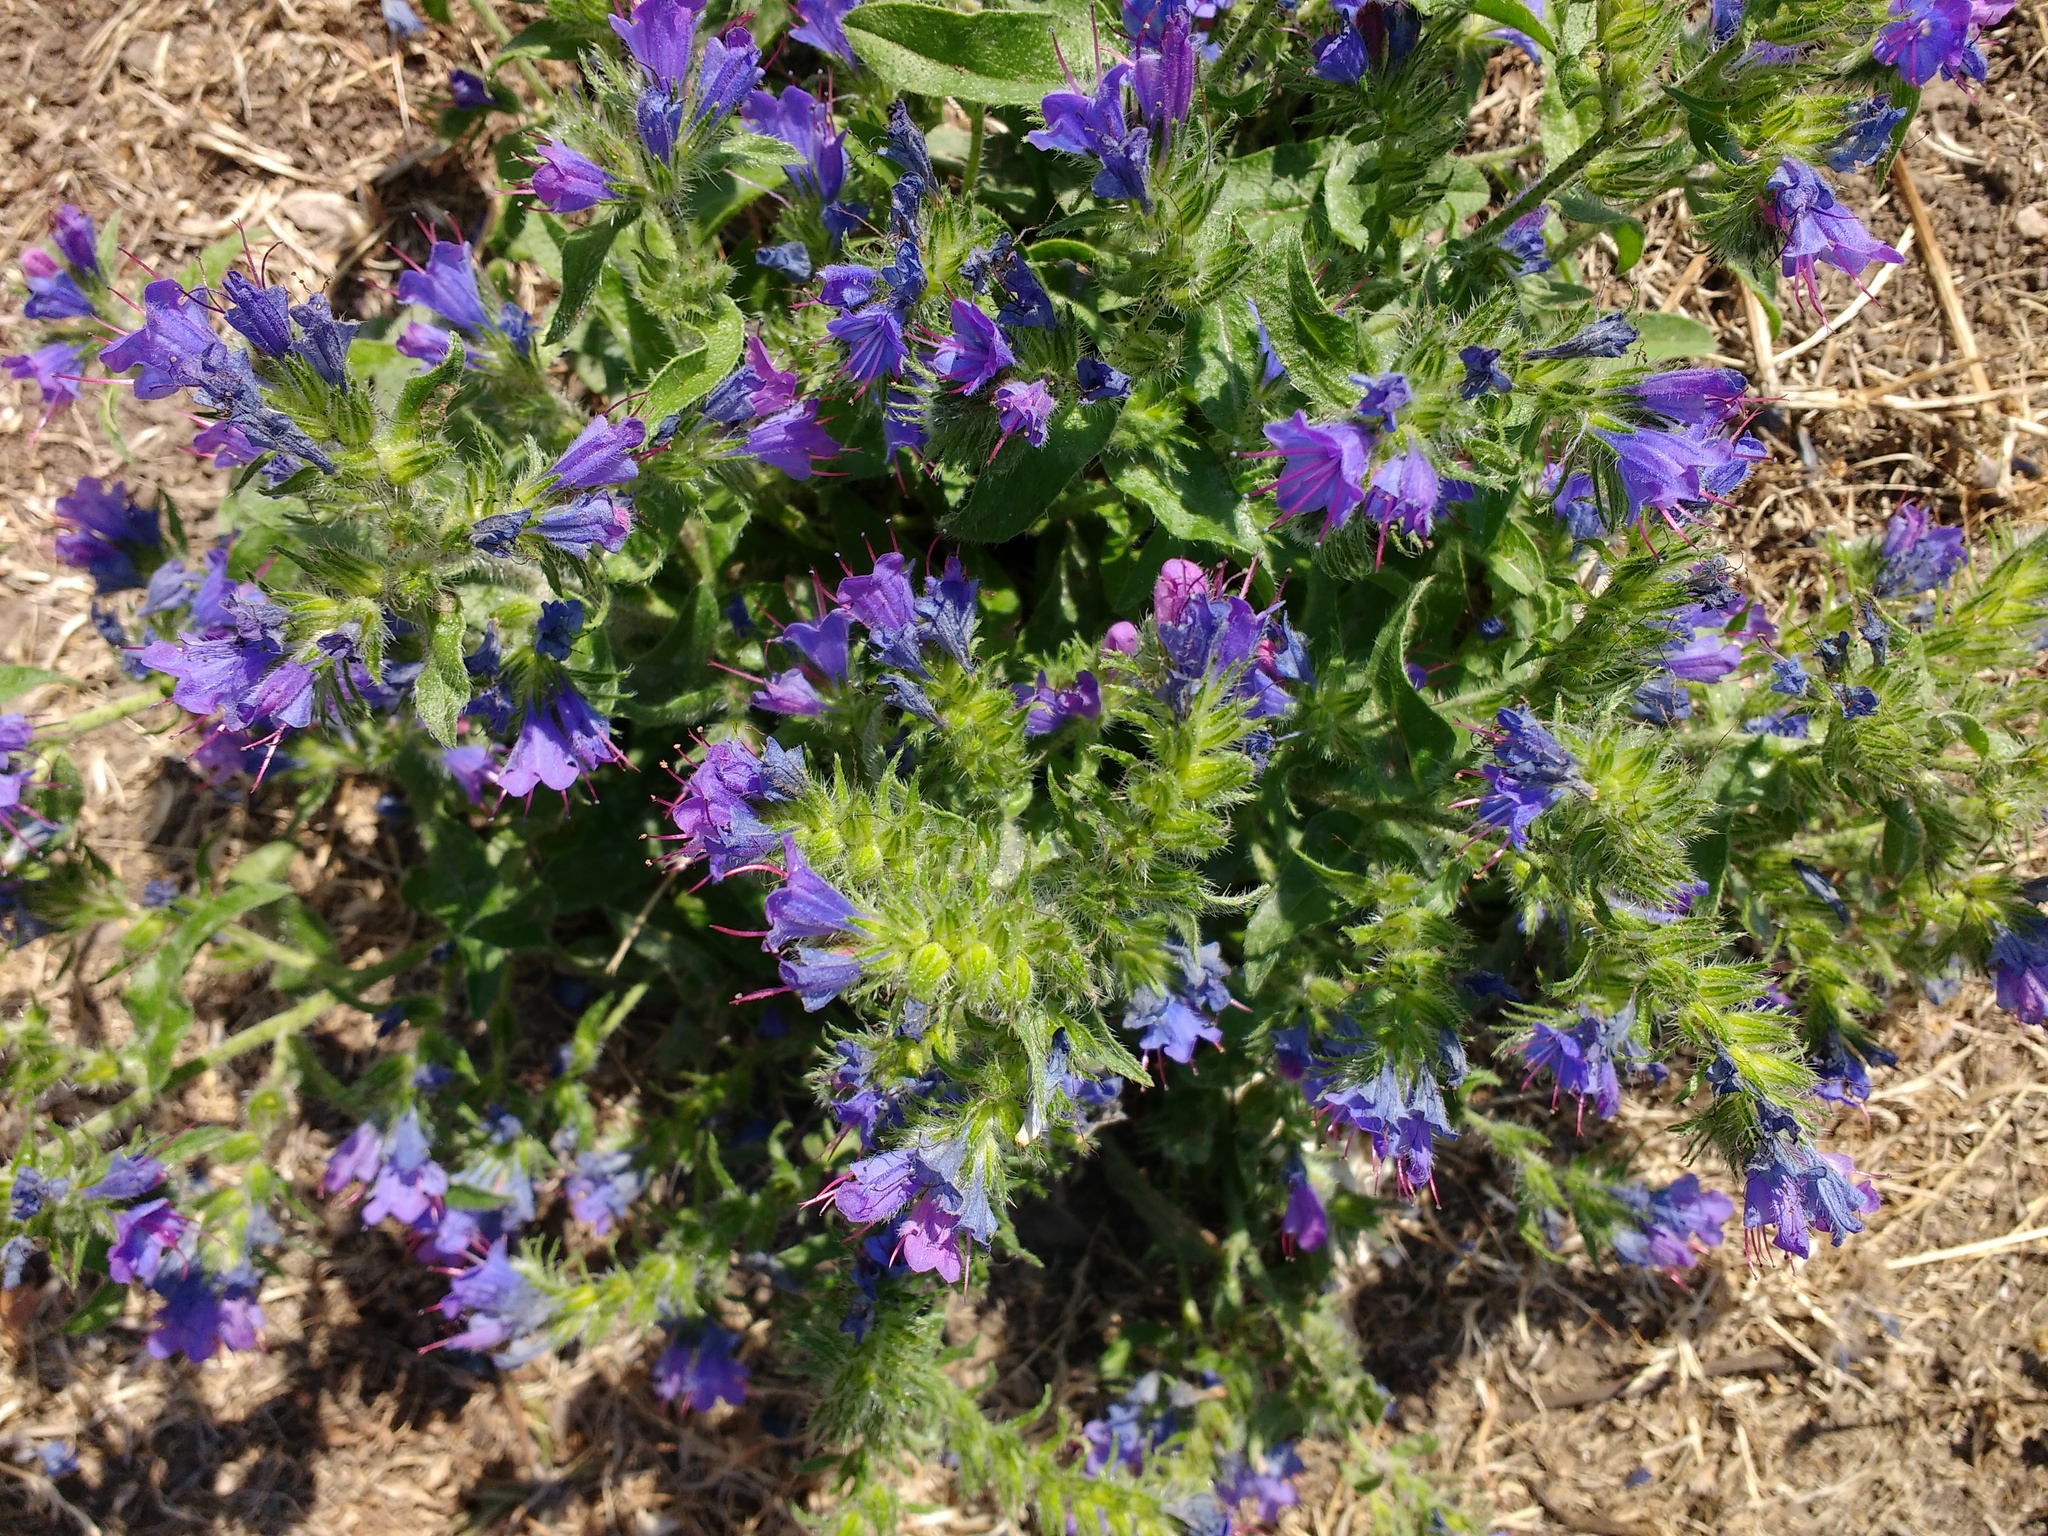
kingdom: Plantae
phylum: Tracheophyta
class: Magnoliopsida
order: Boraginales
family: Boraginaceae
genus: Echium
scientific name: Echium vulgare
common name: Common viper's bugloss
